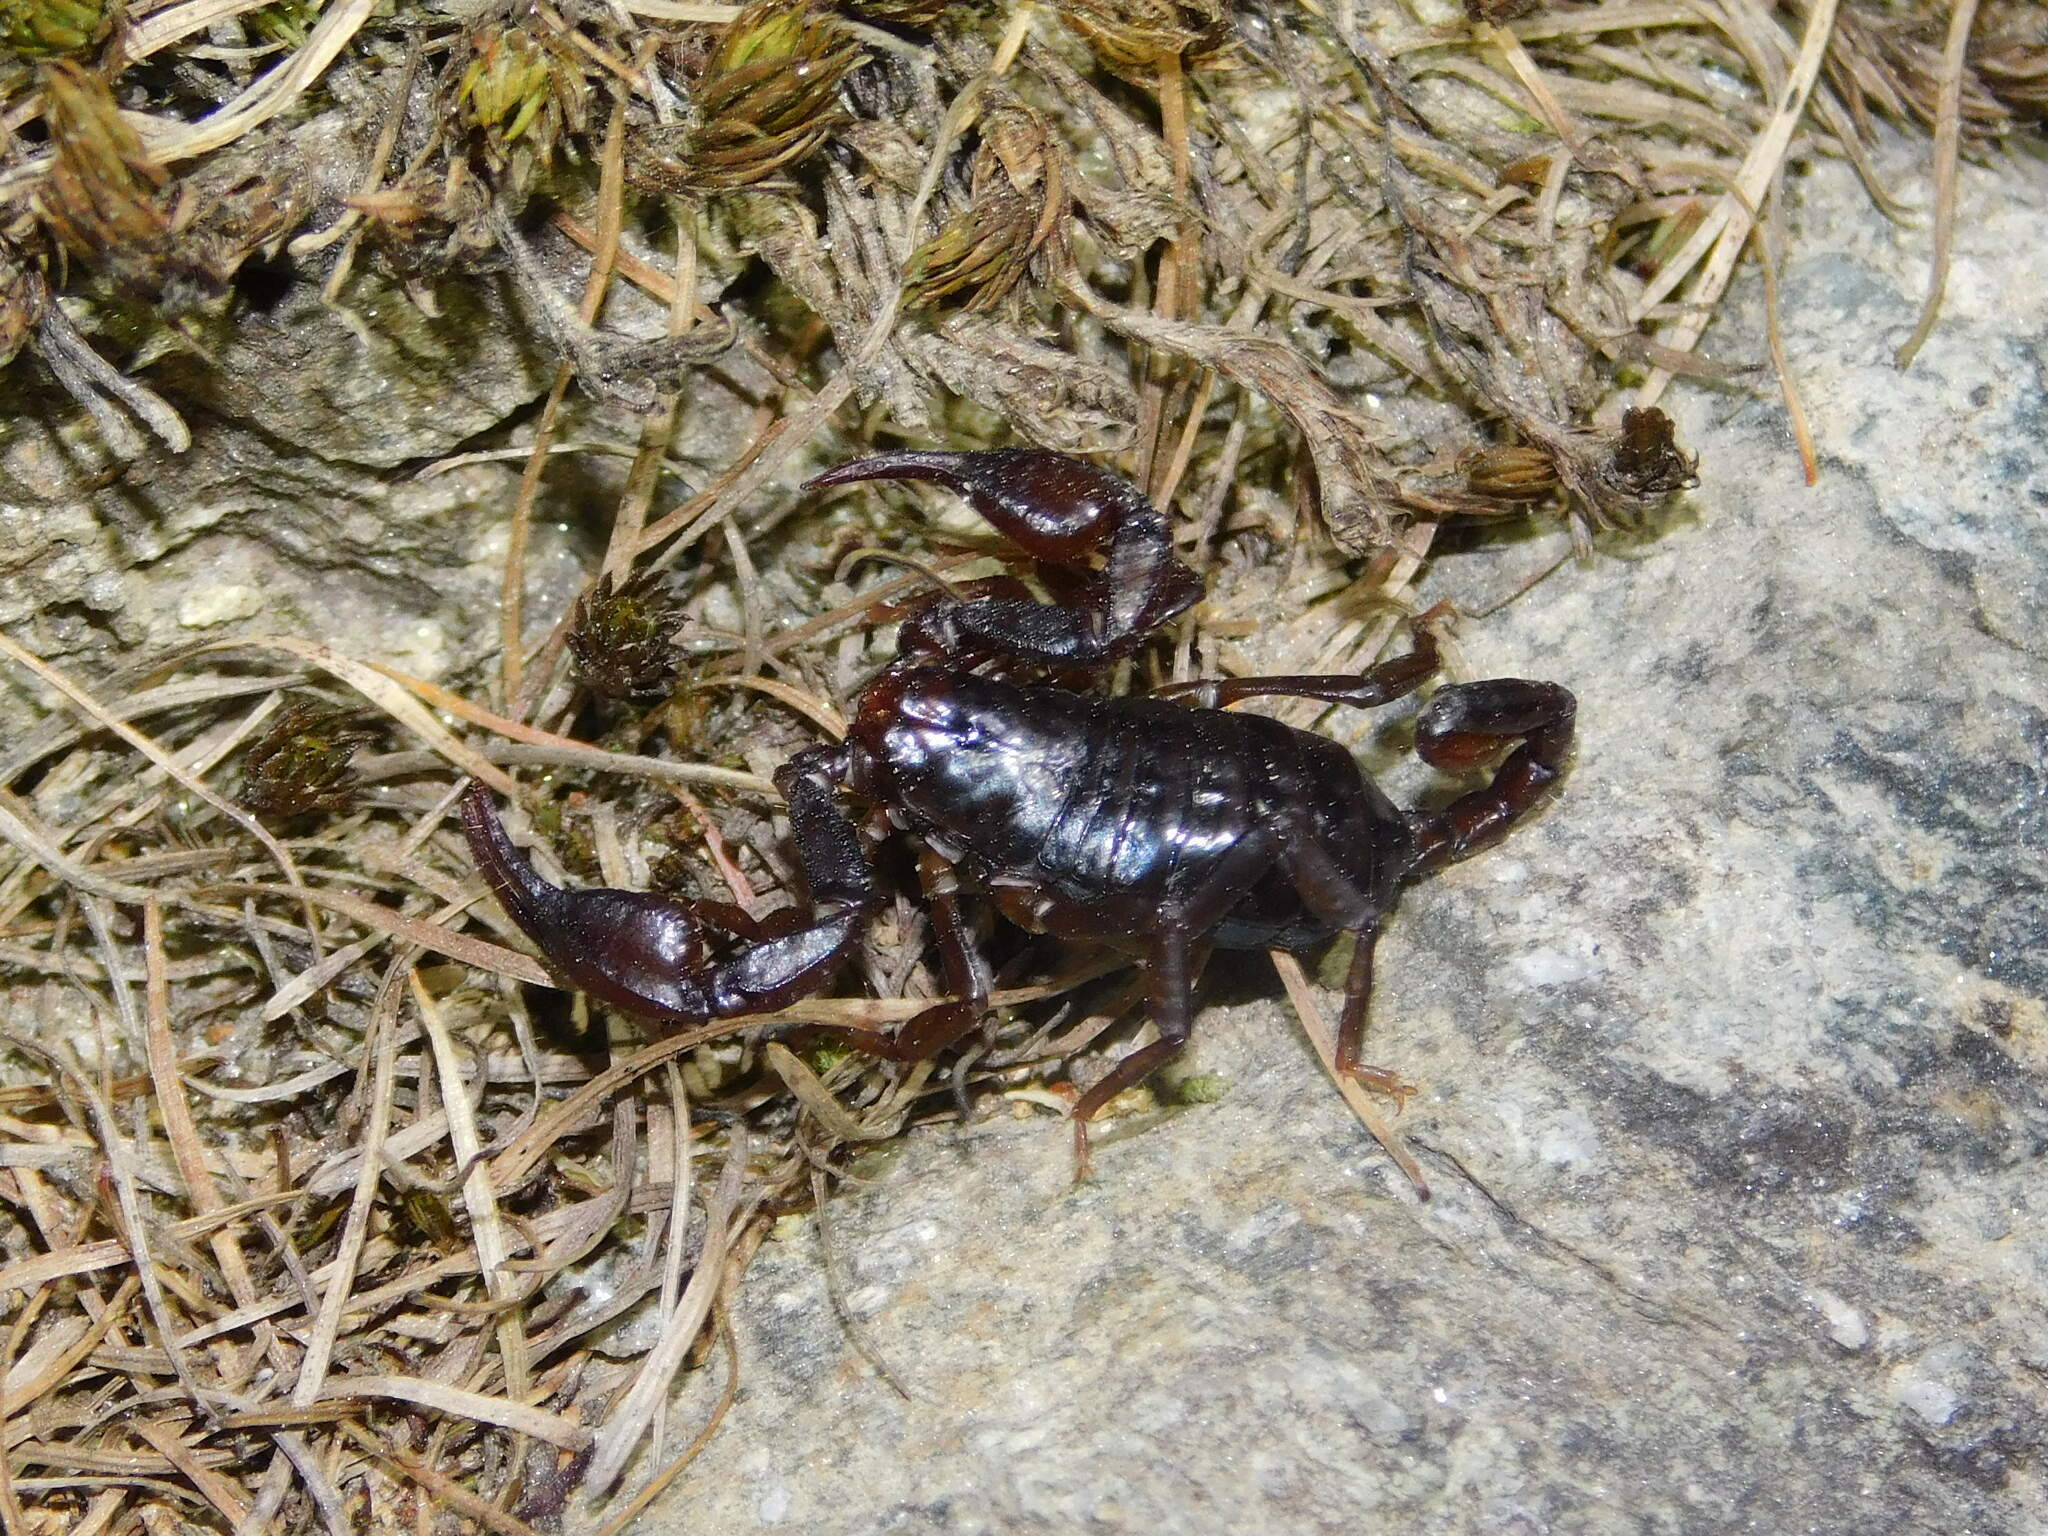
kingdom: Animalia
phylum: Arthropoda
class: Arachnida
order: Scorpiones
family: Euscorpiidae
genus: Alpiscorpius
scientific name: Alpiscorpius alpha
